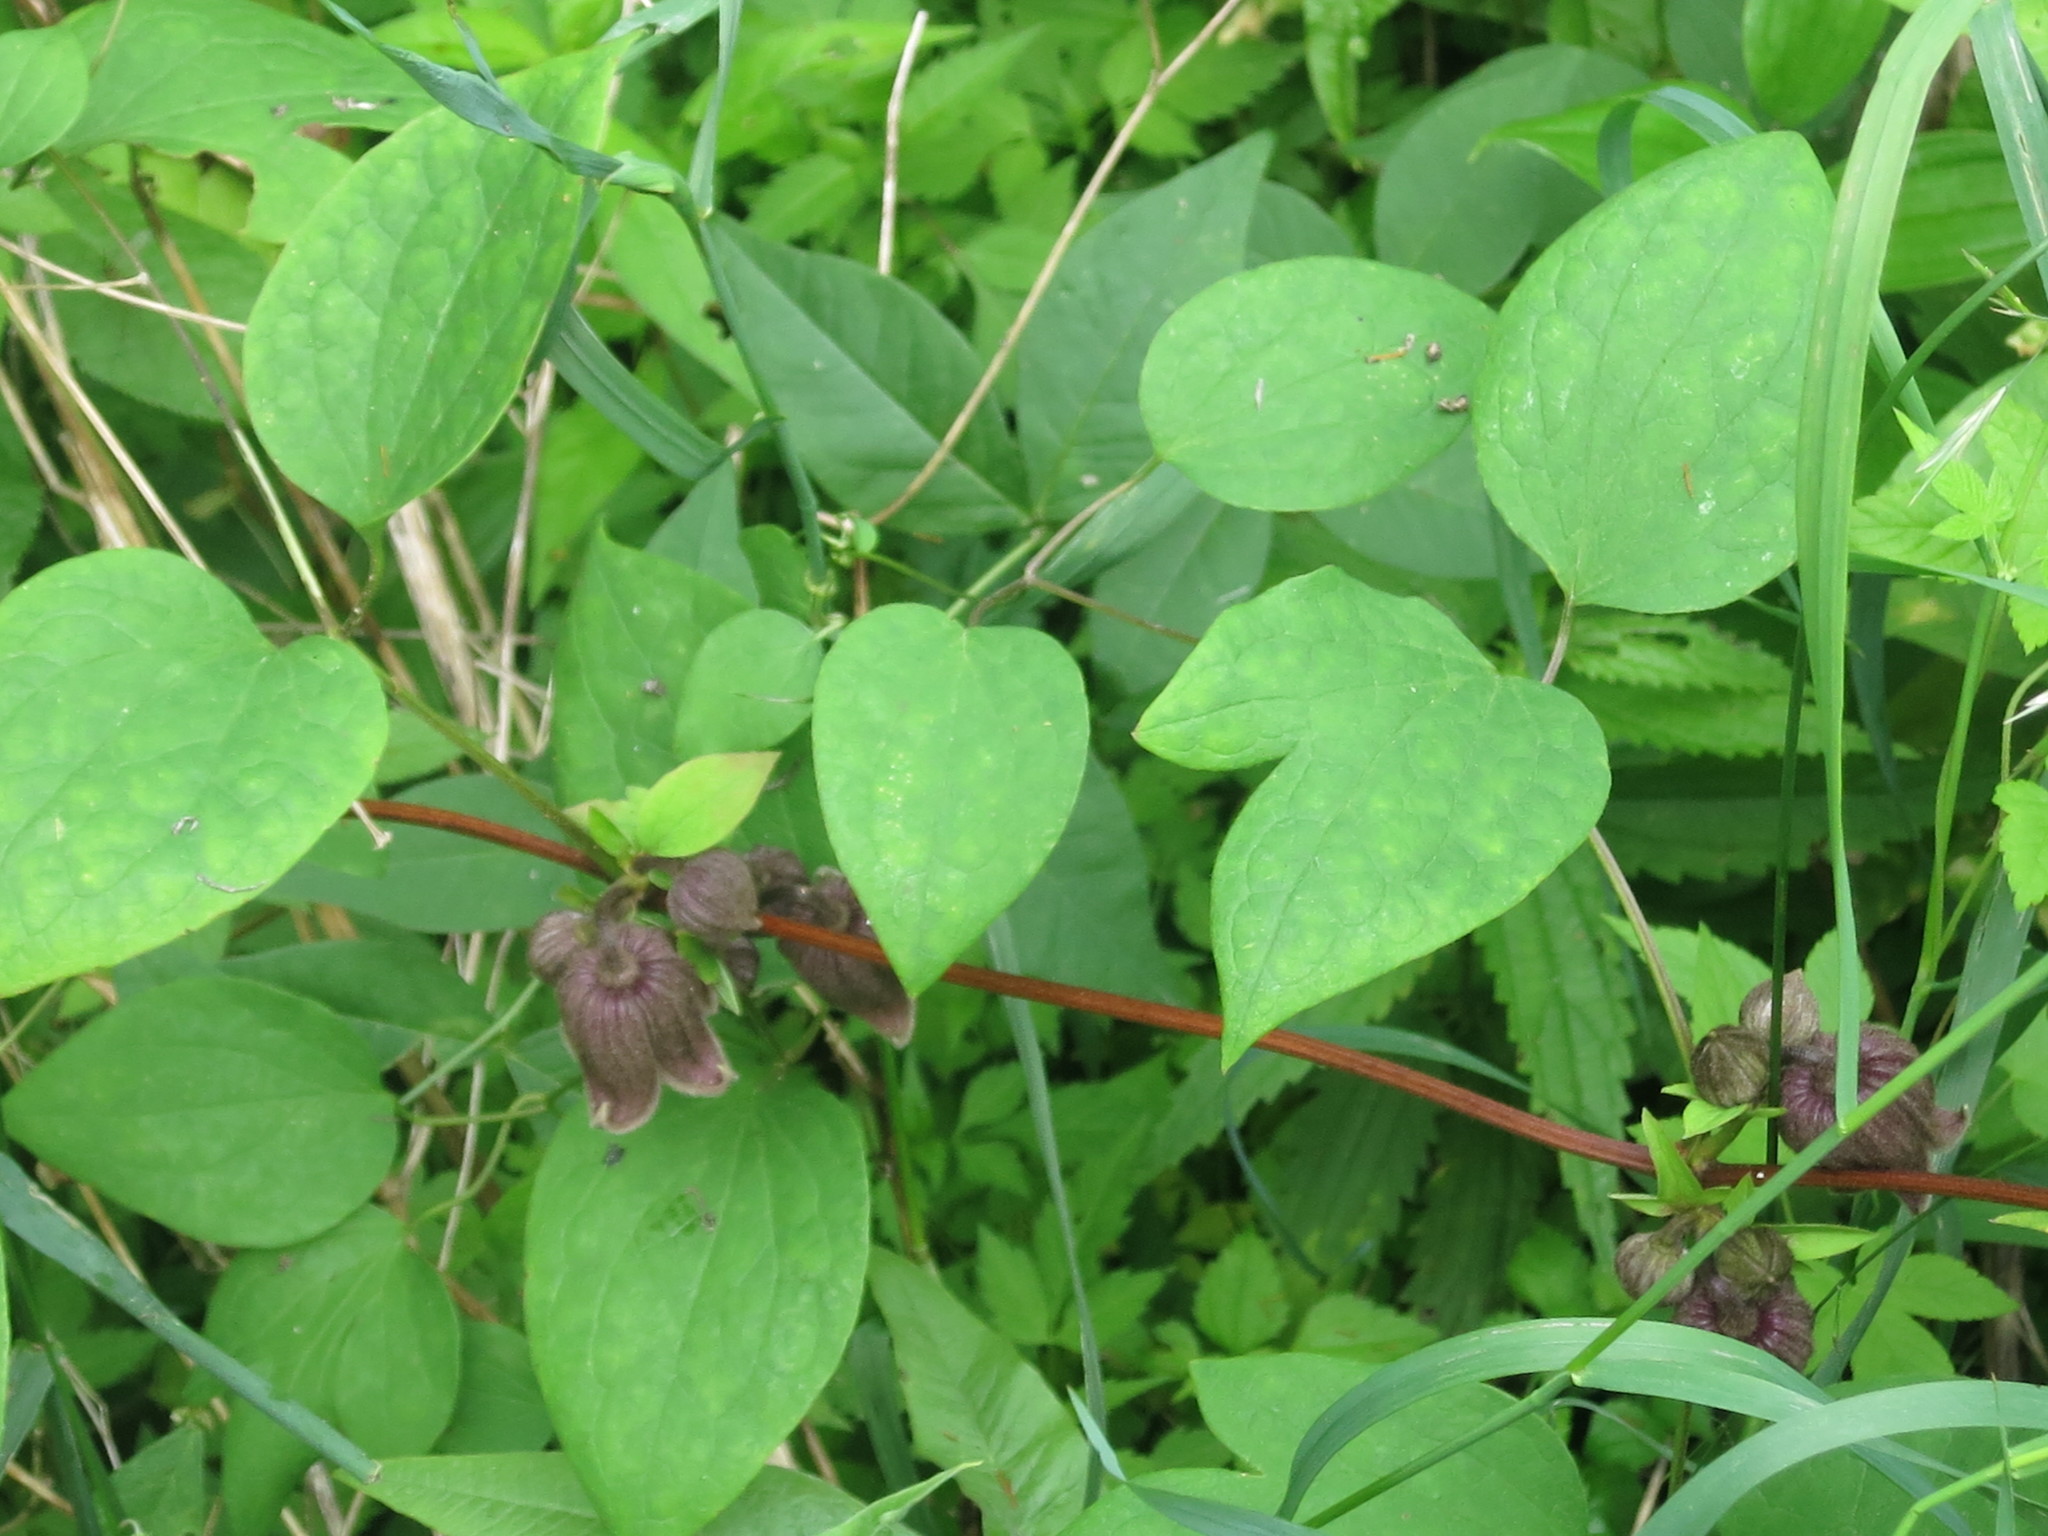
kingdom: Plantae
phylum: Tracheophyta
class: Magnoliopsida
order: Ranunculales
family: Ranunculaceae
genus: Clematis
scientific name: Clematis fusca
